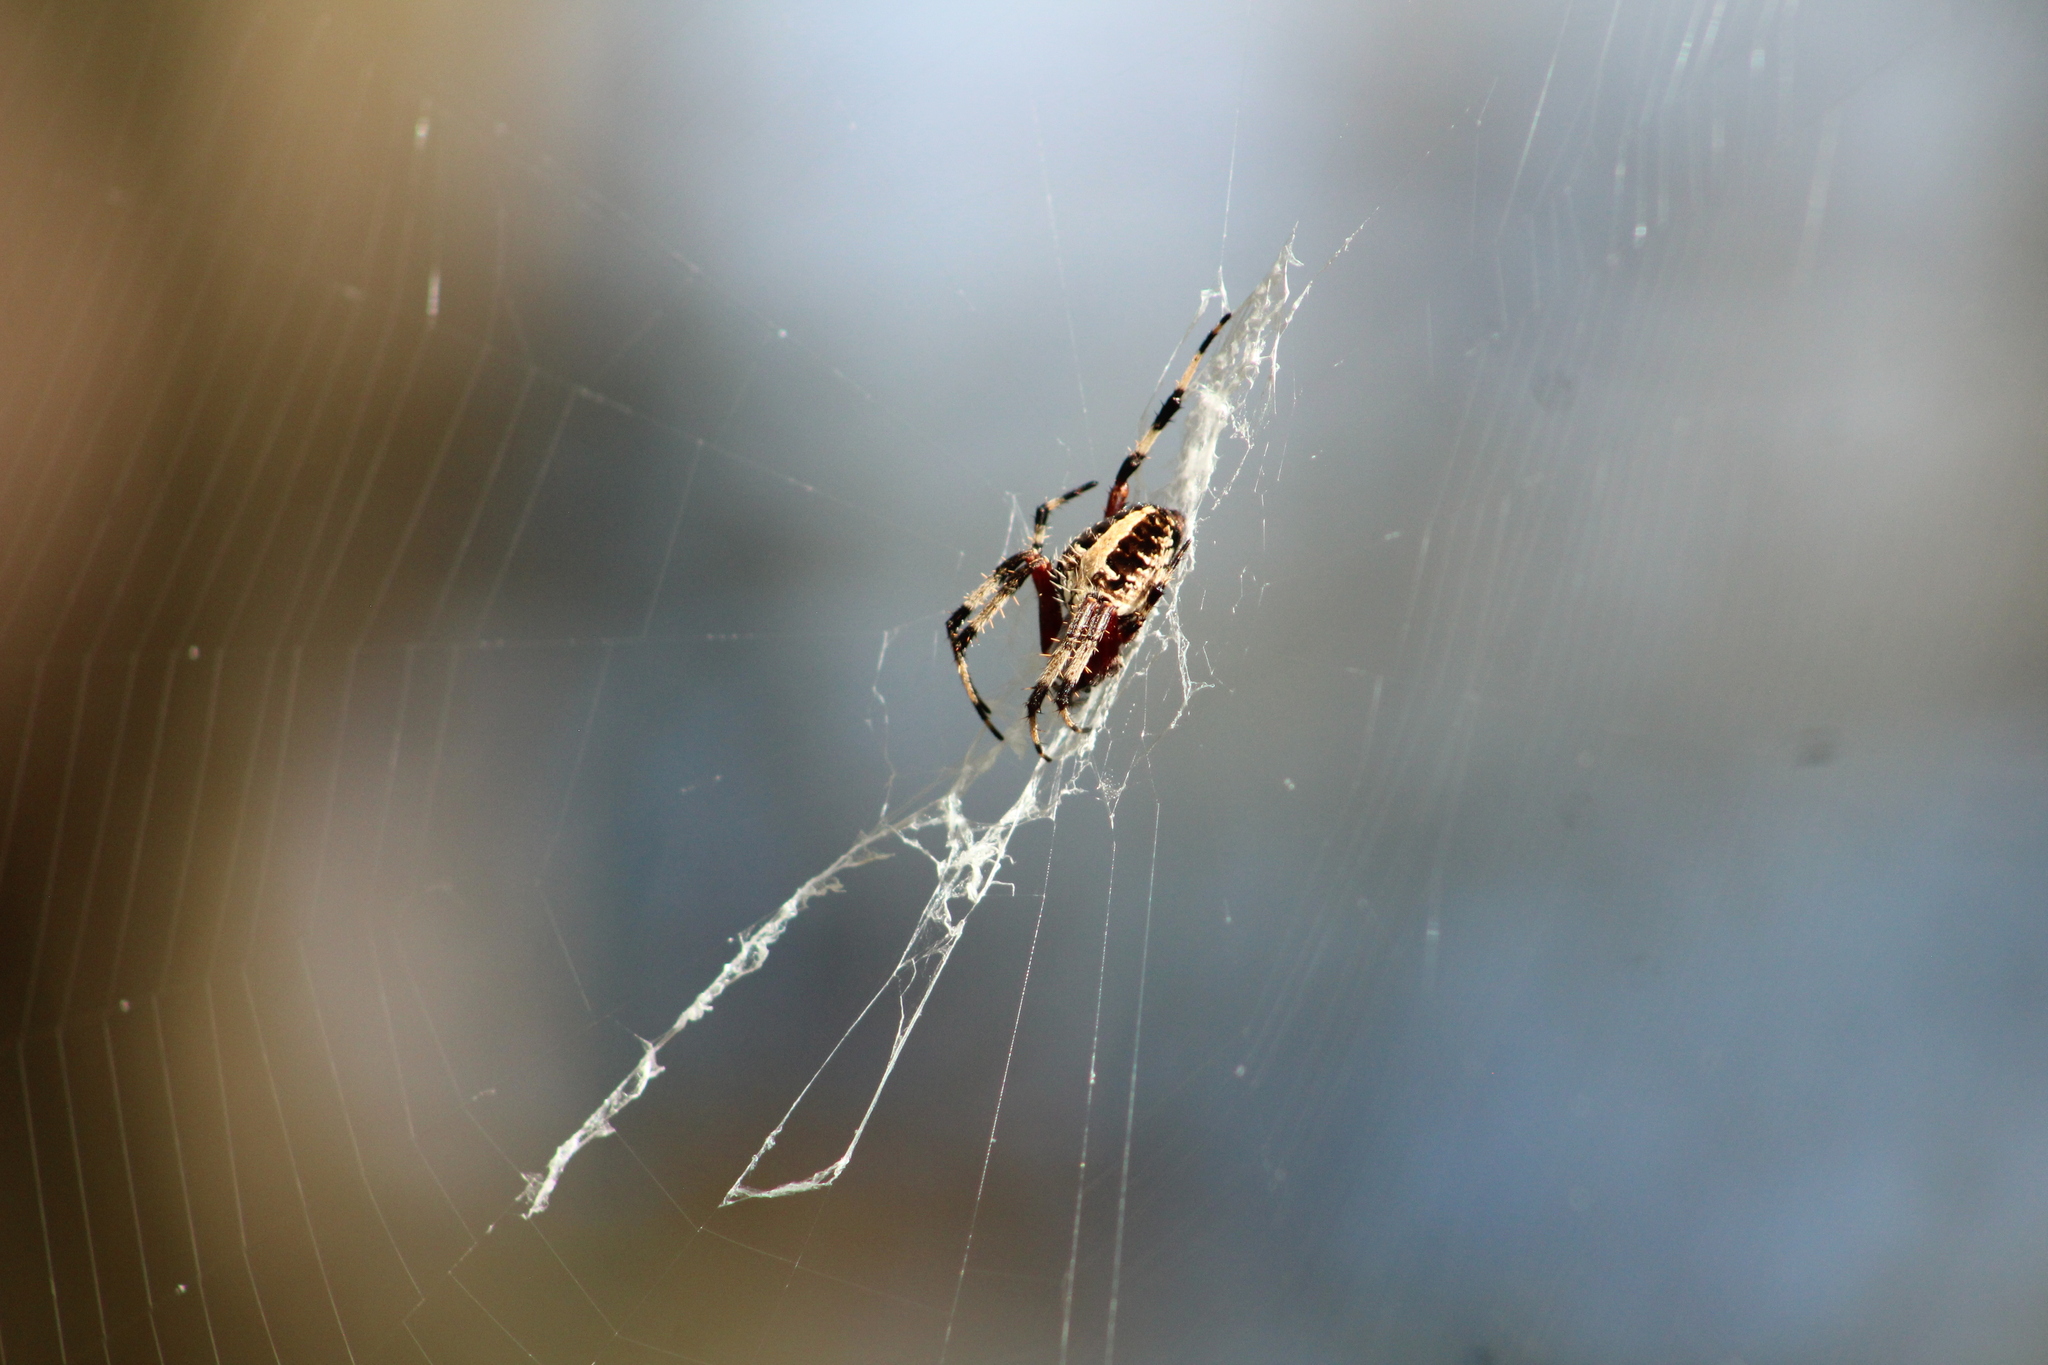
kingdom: Animalia
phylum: Arthropoda
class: Arachnida
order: Araneae
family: Araneidae
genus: Neoscona
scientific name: Neoscona domiciliorum
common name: Red-femured spotted orbweaver
